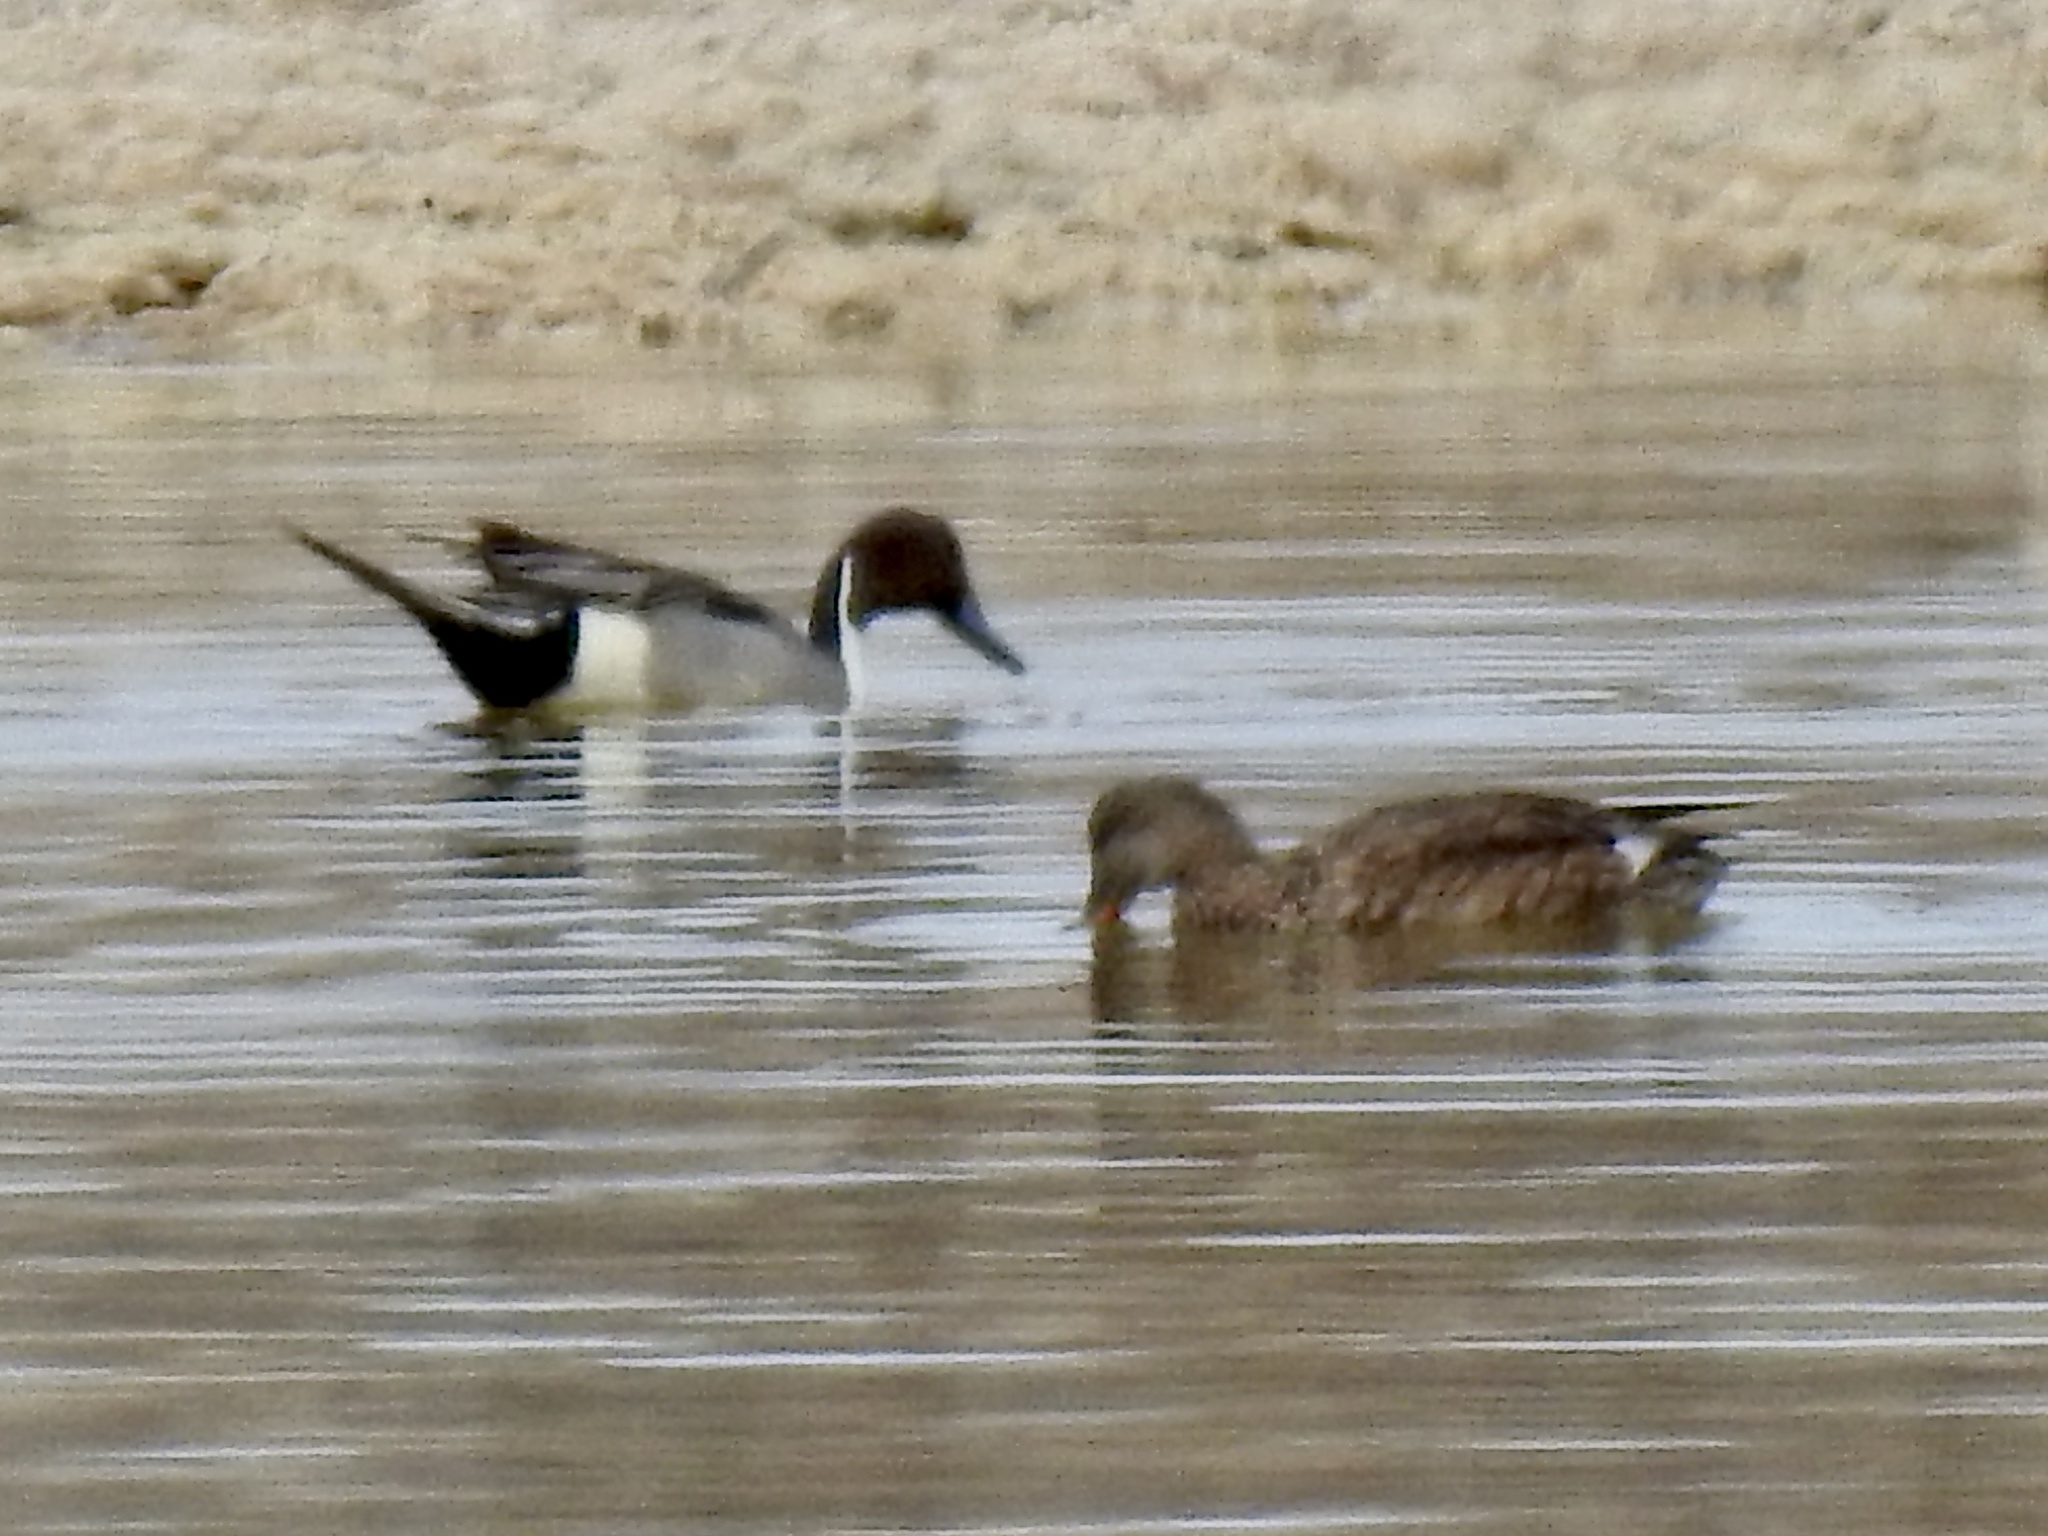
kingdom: Animalia
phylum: Chordata
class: Aves
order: Anseriformes
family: Anatidae
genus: Anas
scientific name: Anas acuta
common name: Northern pintail
